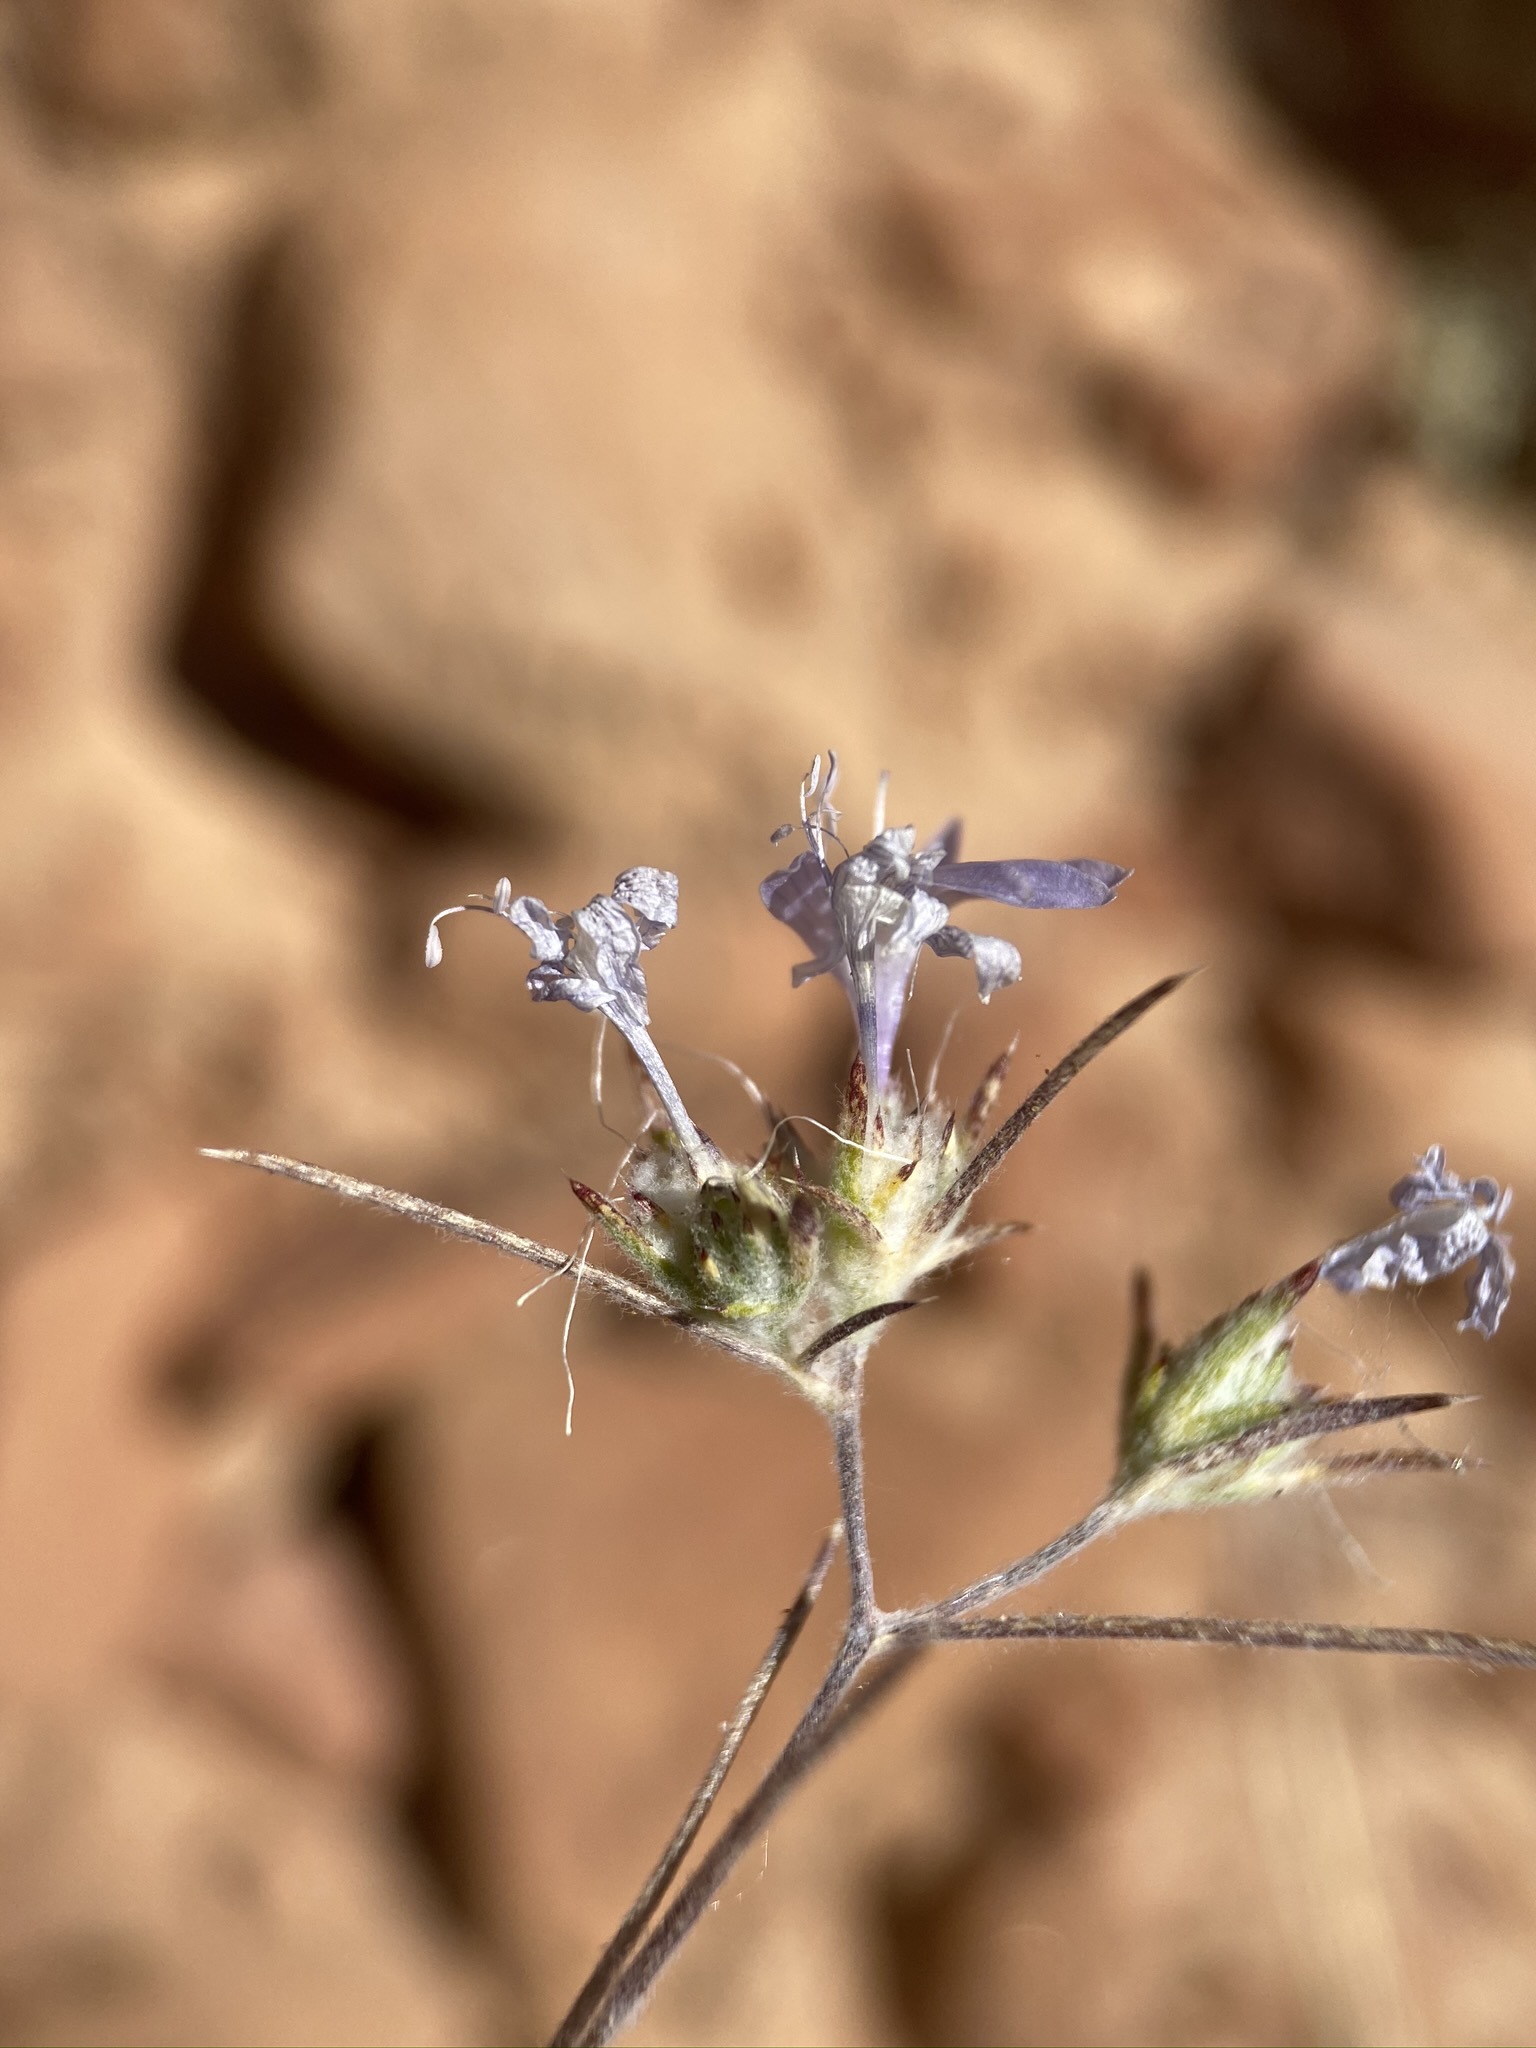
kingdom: Plantae
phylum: Tracheophyta
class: Magnoliopsida
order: Ericales
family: Polemoniaceae
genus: Eriastrum
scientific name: Eriastrum eremicum
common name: Desert eriastrum
